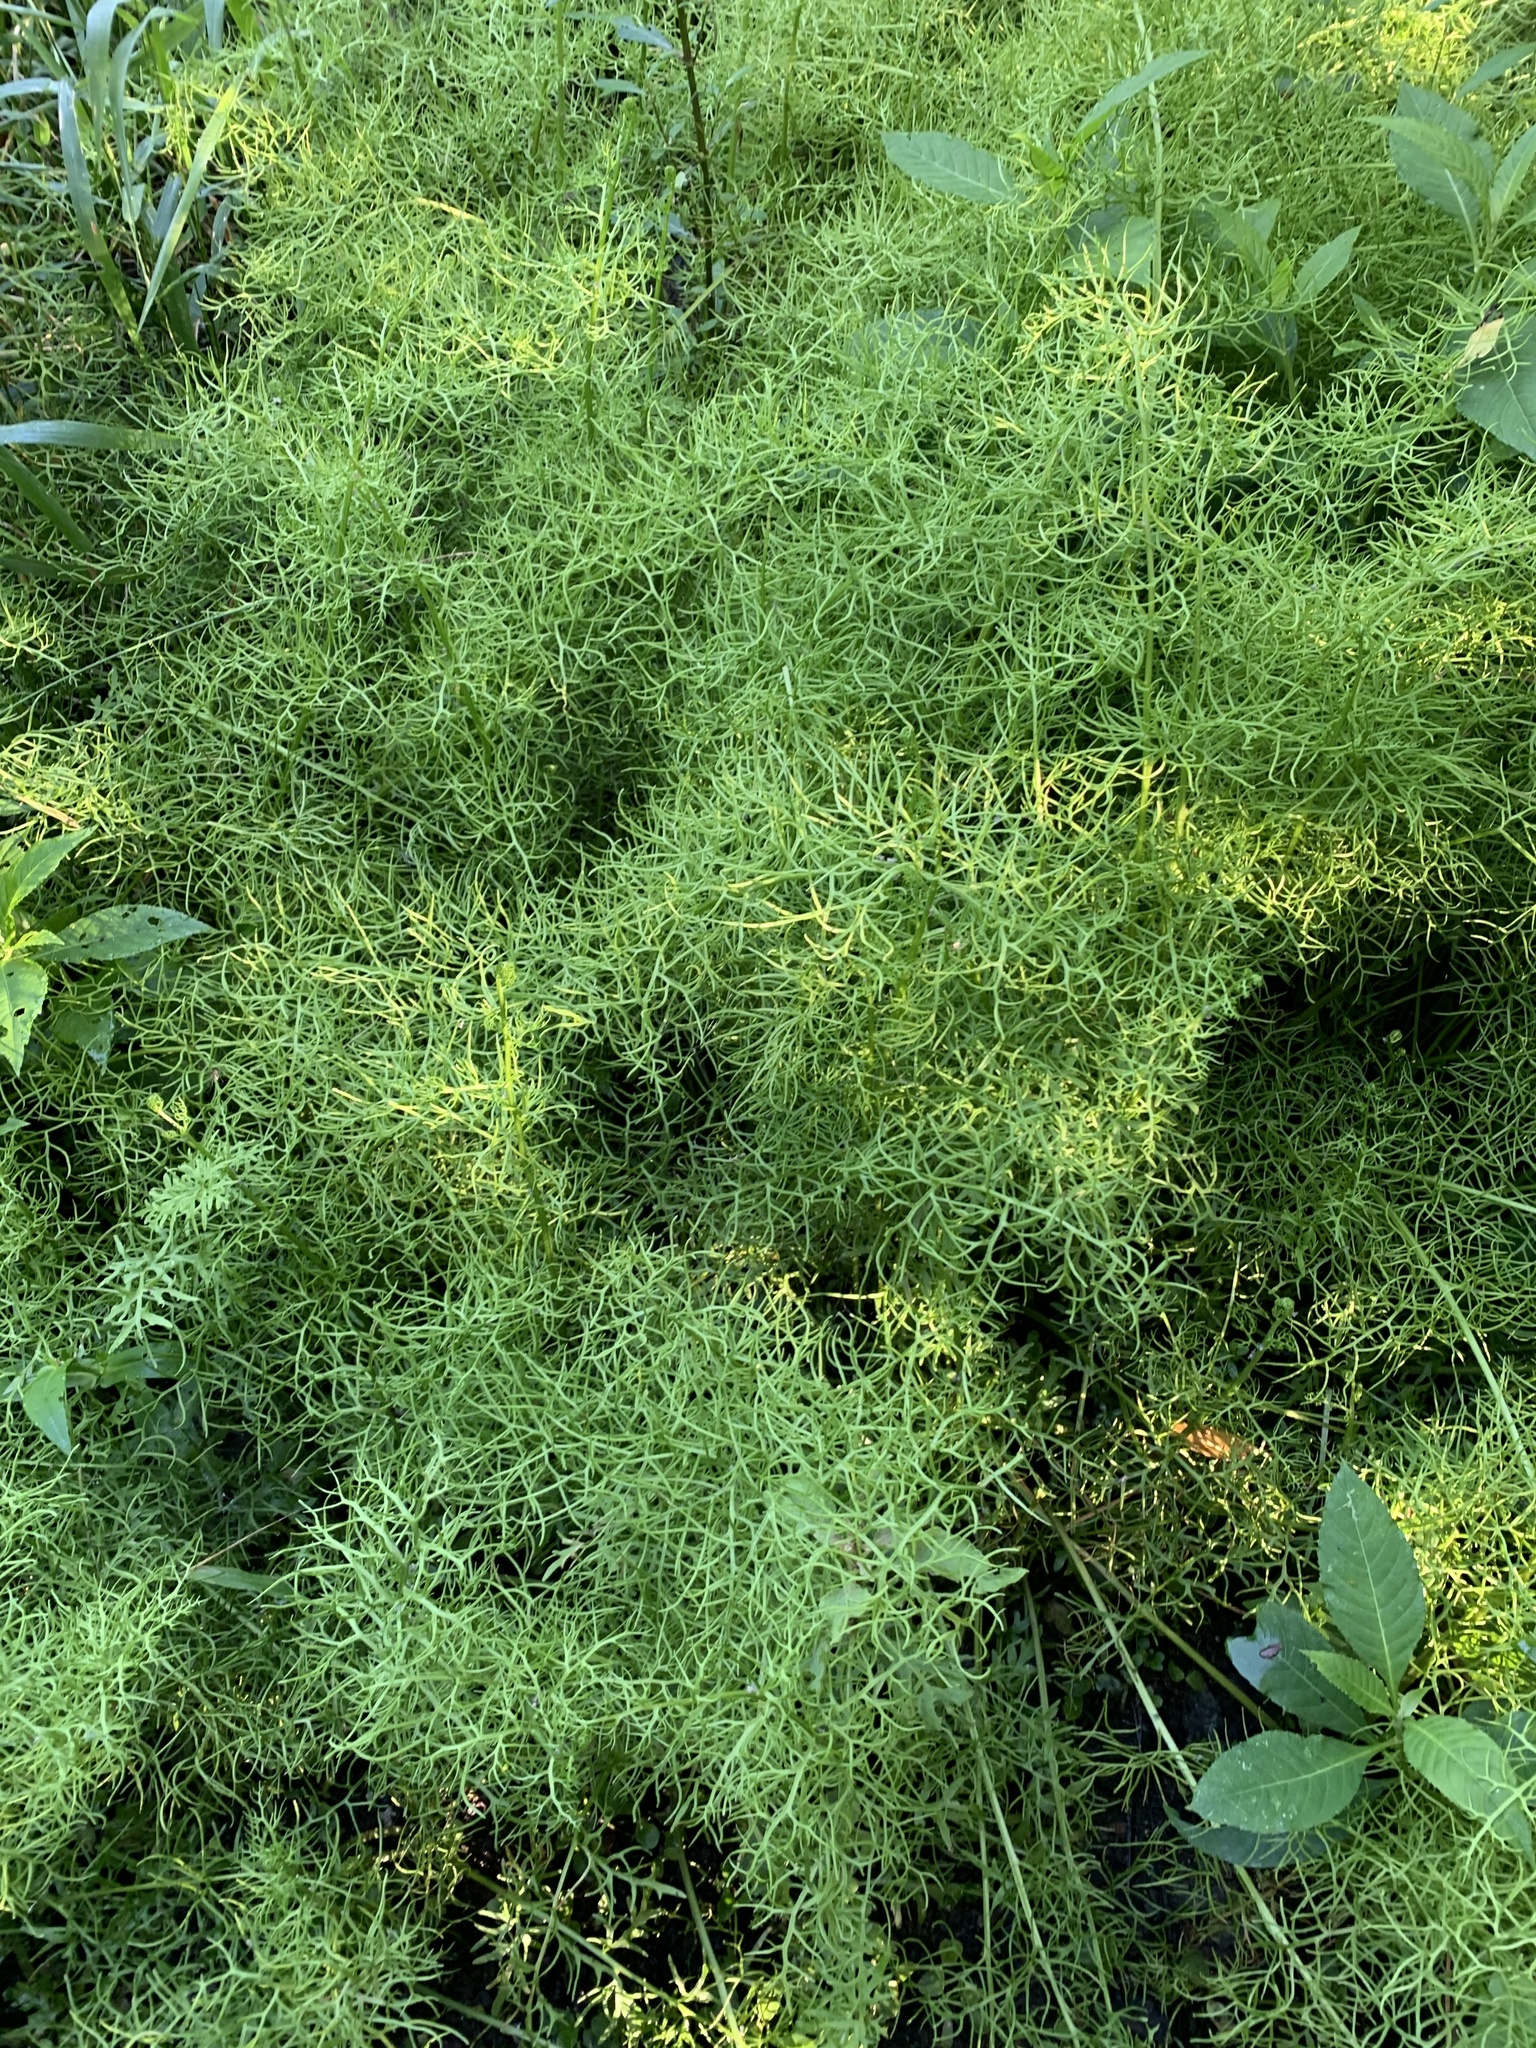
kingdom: Plantae
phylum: Tracheophyta
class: Polypodiopsida
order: Polypodiales
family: Pteridaceae
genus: Ceratopteris
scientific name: Ceratopteris thalictroides
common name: Water fern
